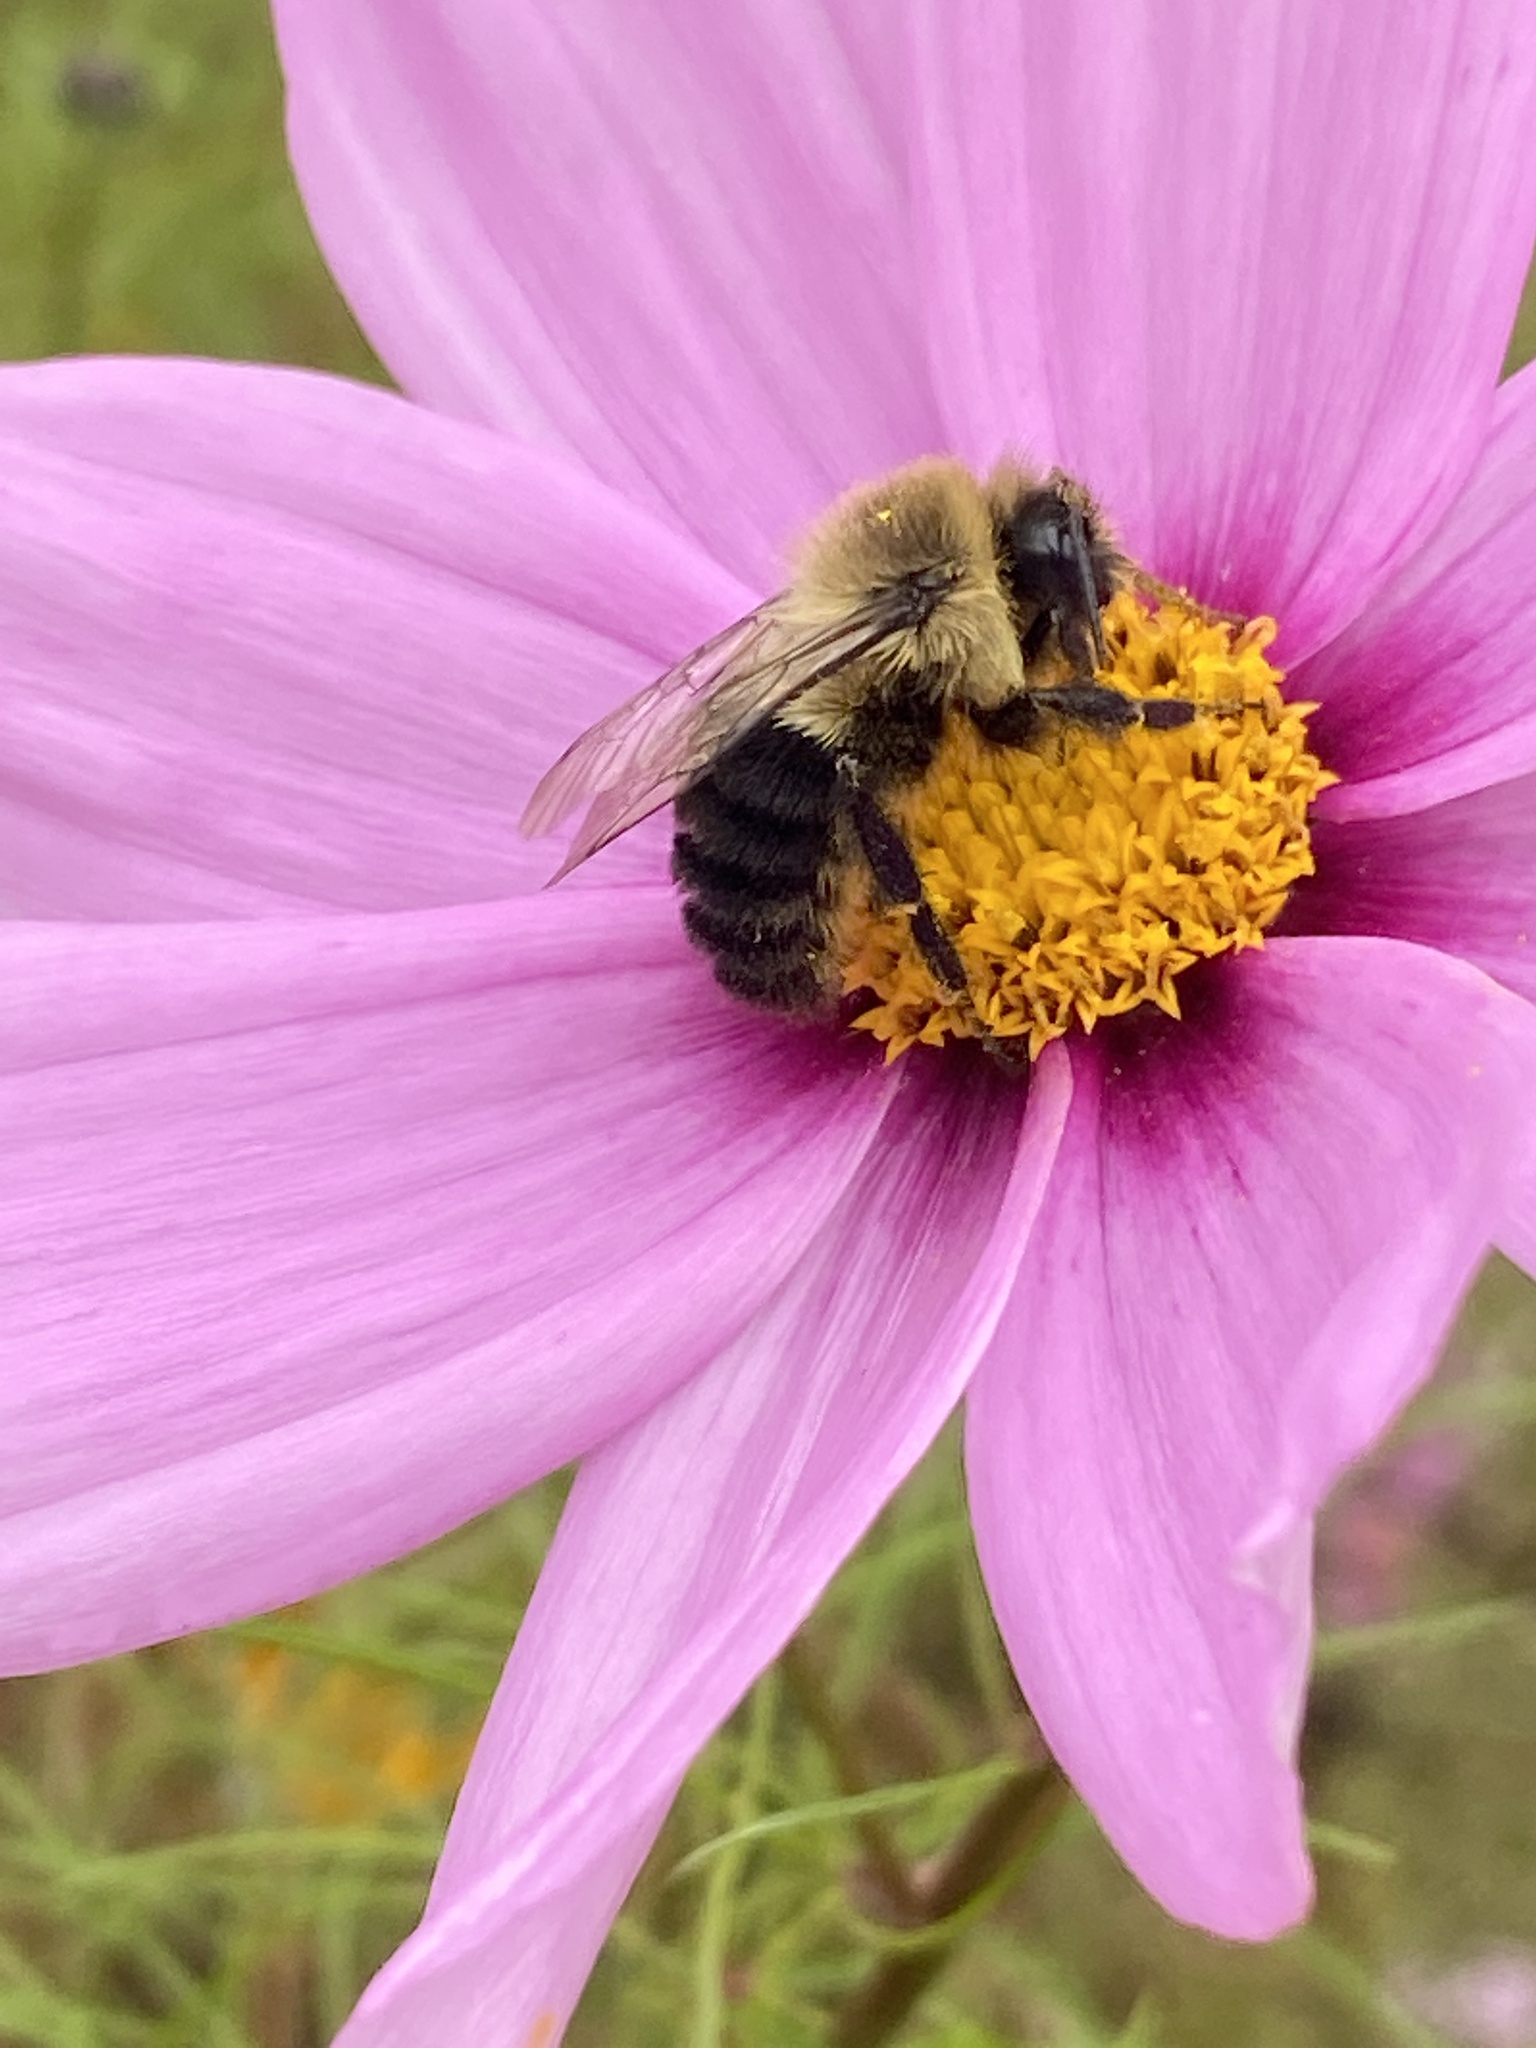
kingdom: Animalia
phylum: Arthropoda
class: Insecta
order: Hymenoptera
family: Apidae
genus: Bombus
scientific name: Bombus impatiens
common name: Common eastern bumble bee
